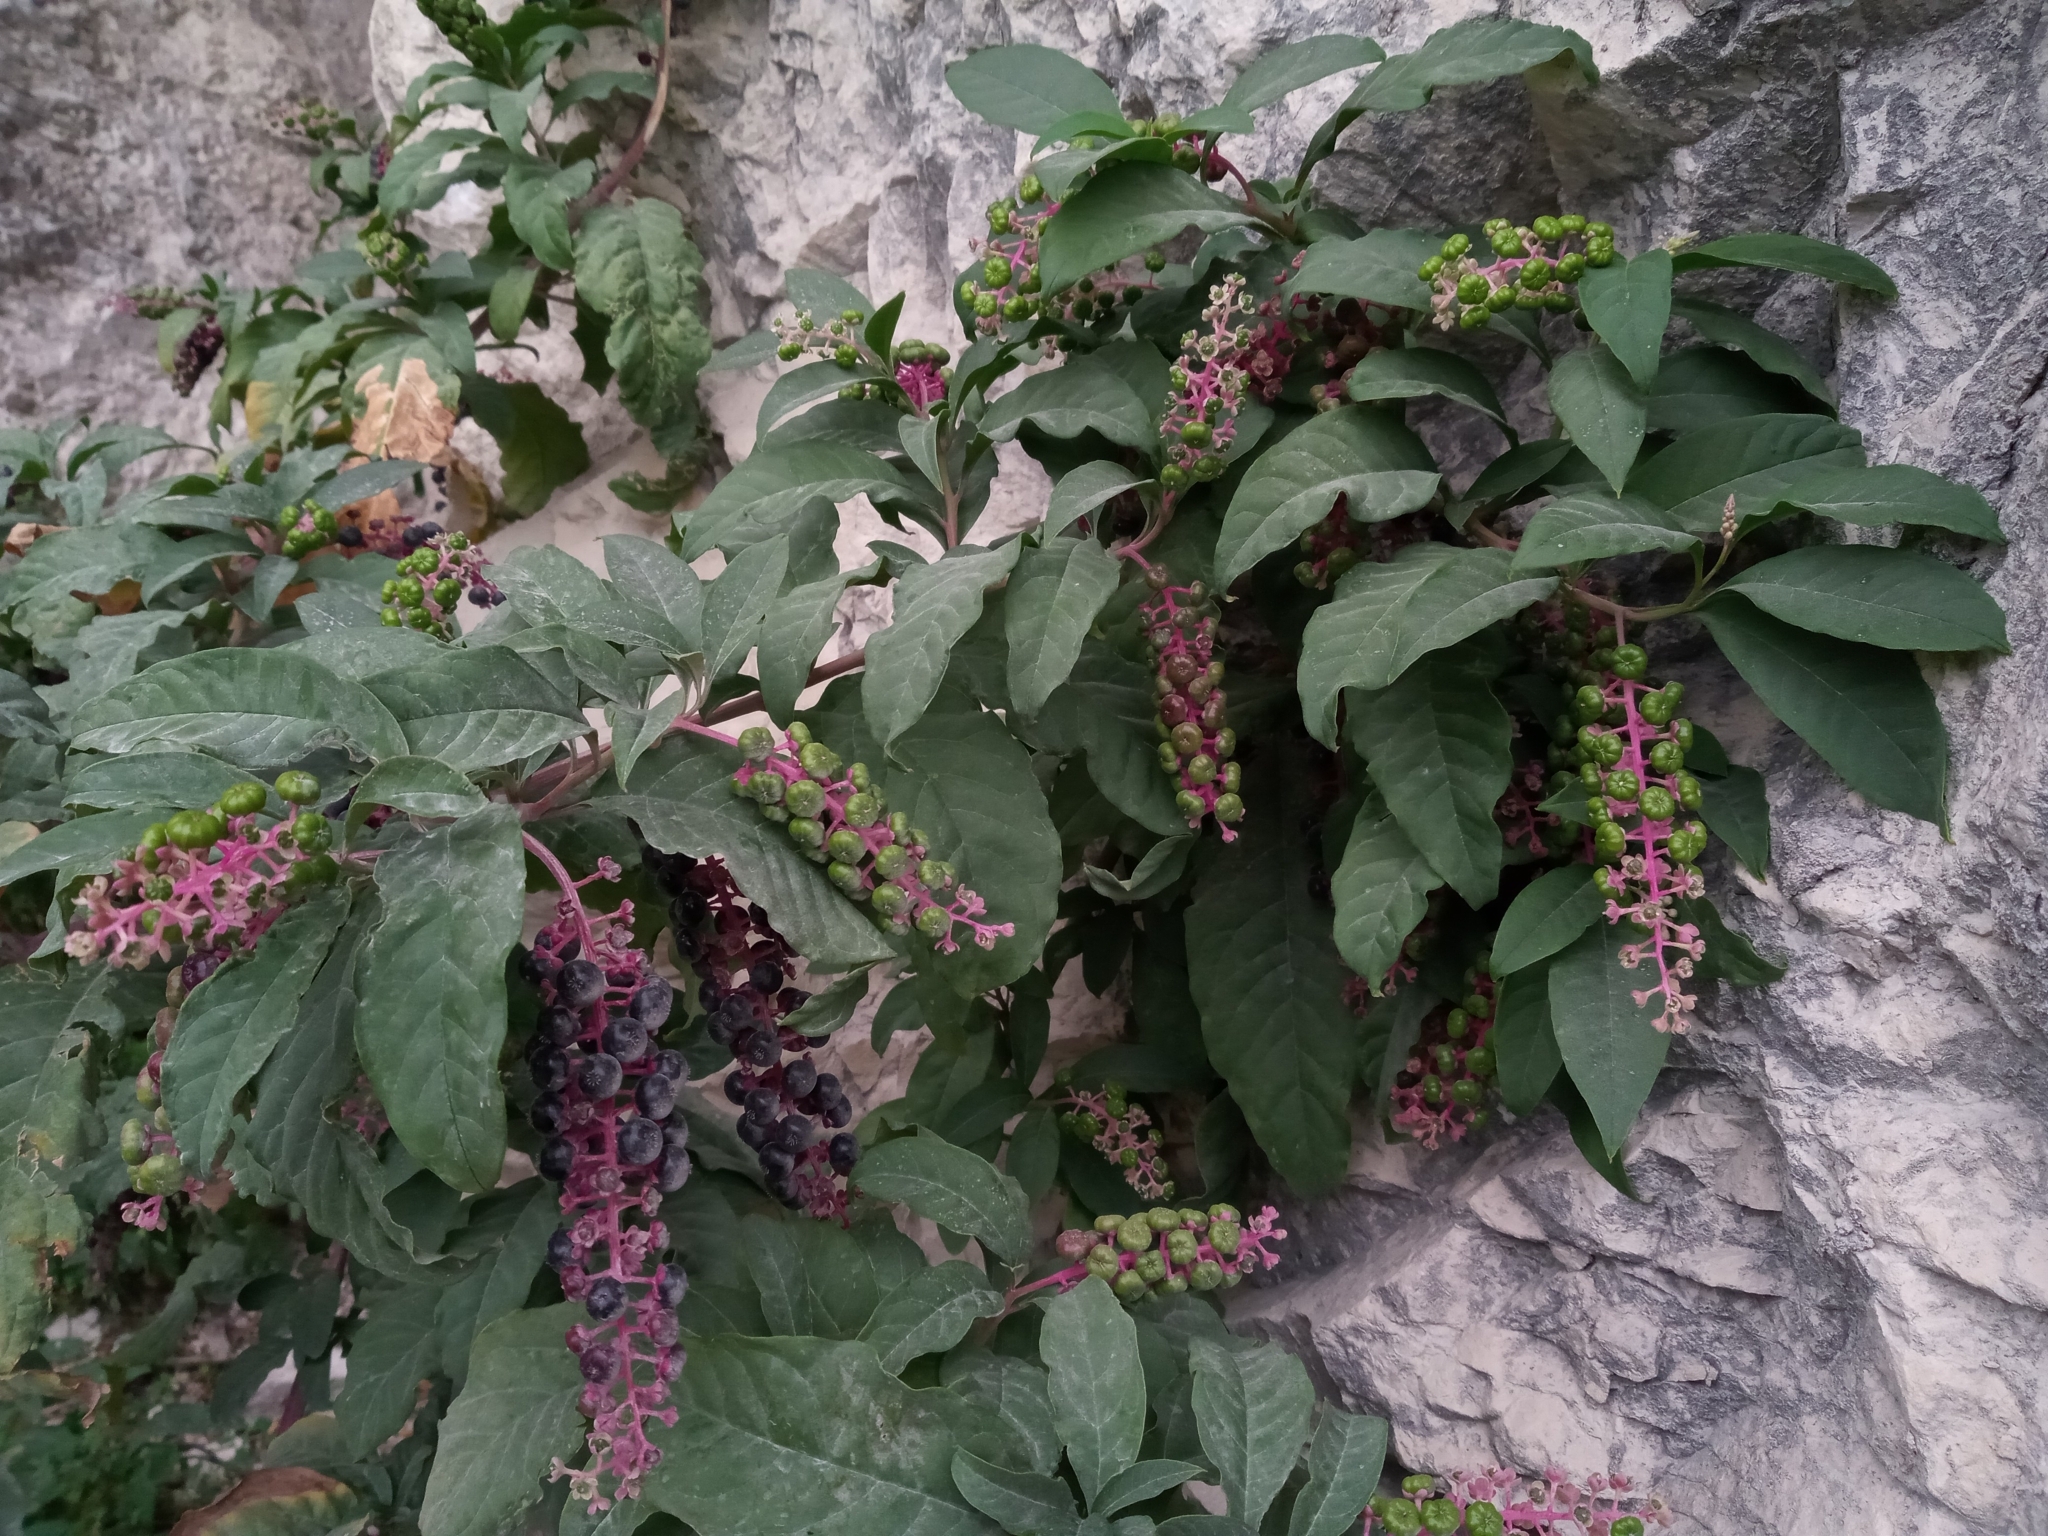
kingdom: Plantae
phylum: Tracheophyta
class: Magnoliopsida
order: Caryophyllales
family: Phytolaccaceae
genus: Phytolacca
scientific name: Phytolacca americana
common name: American pokeweed
